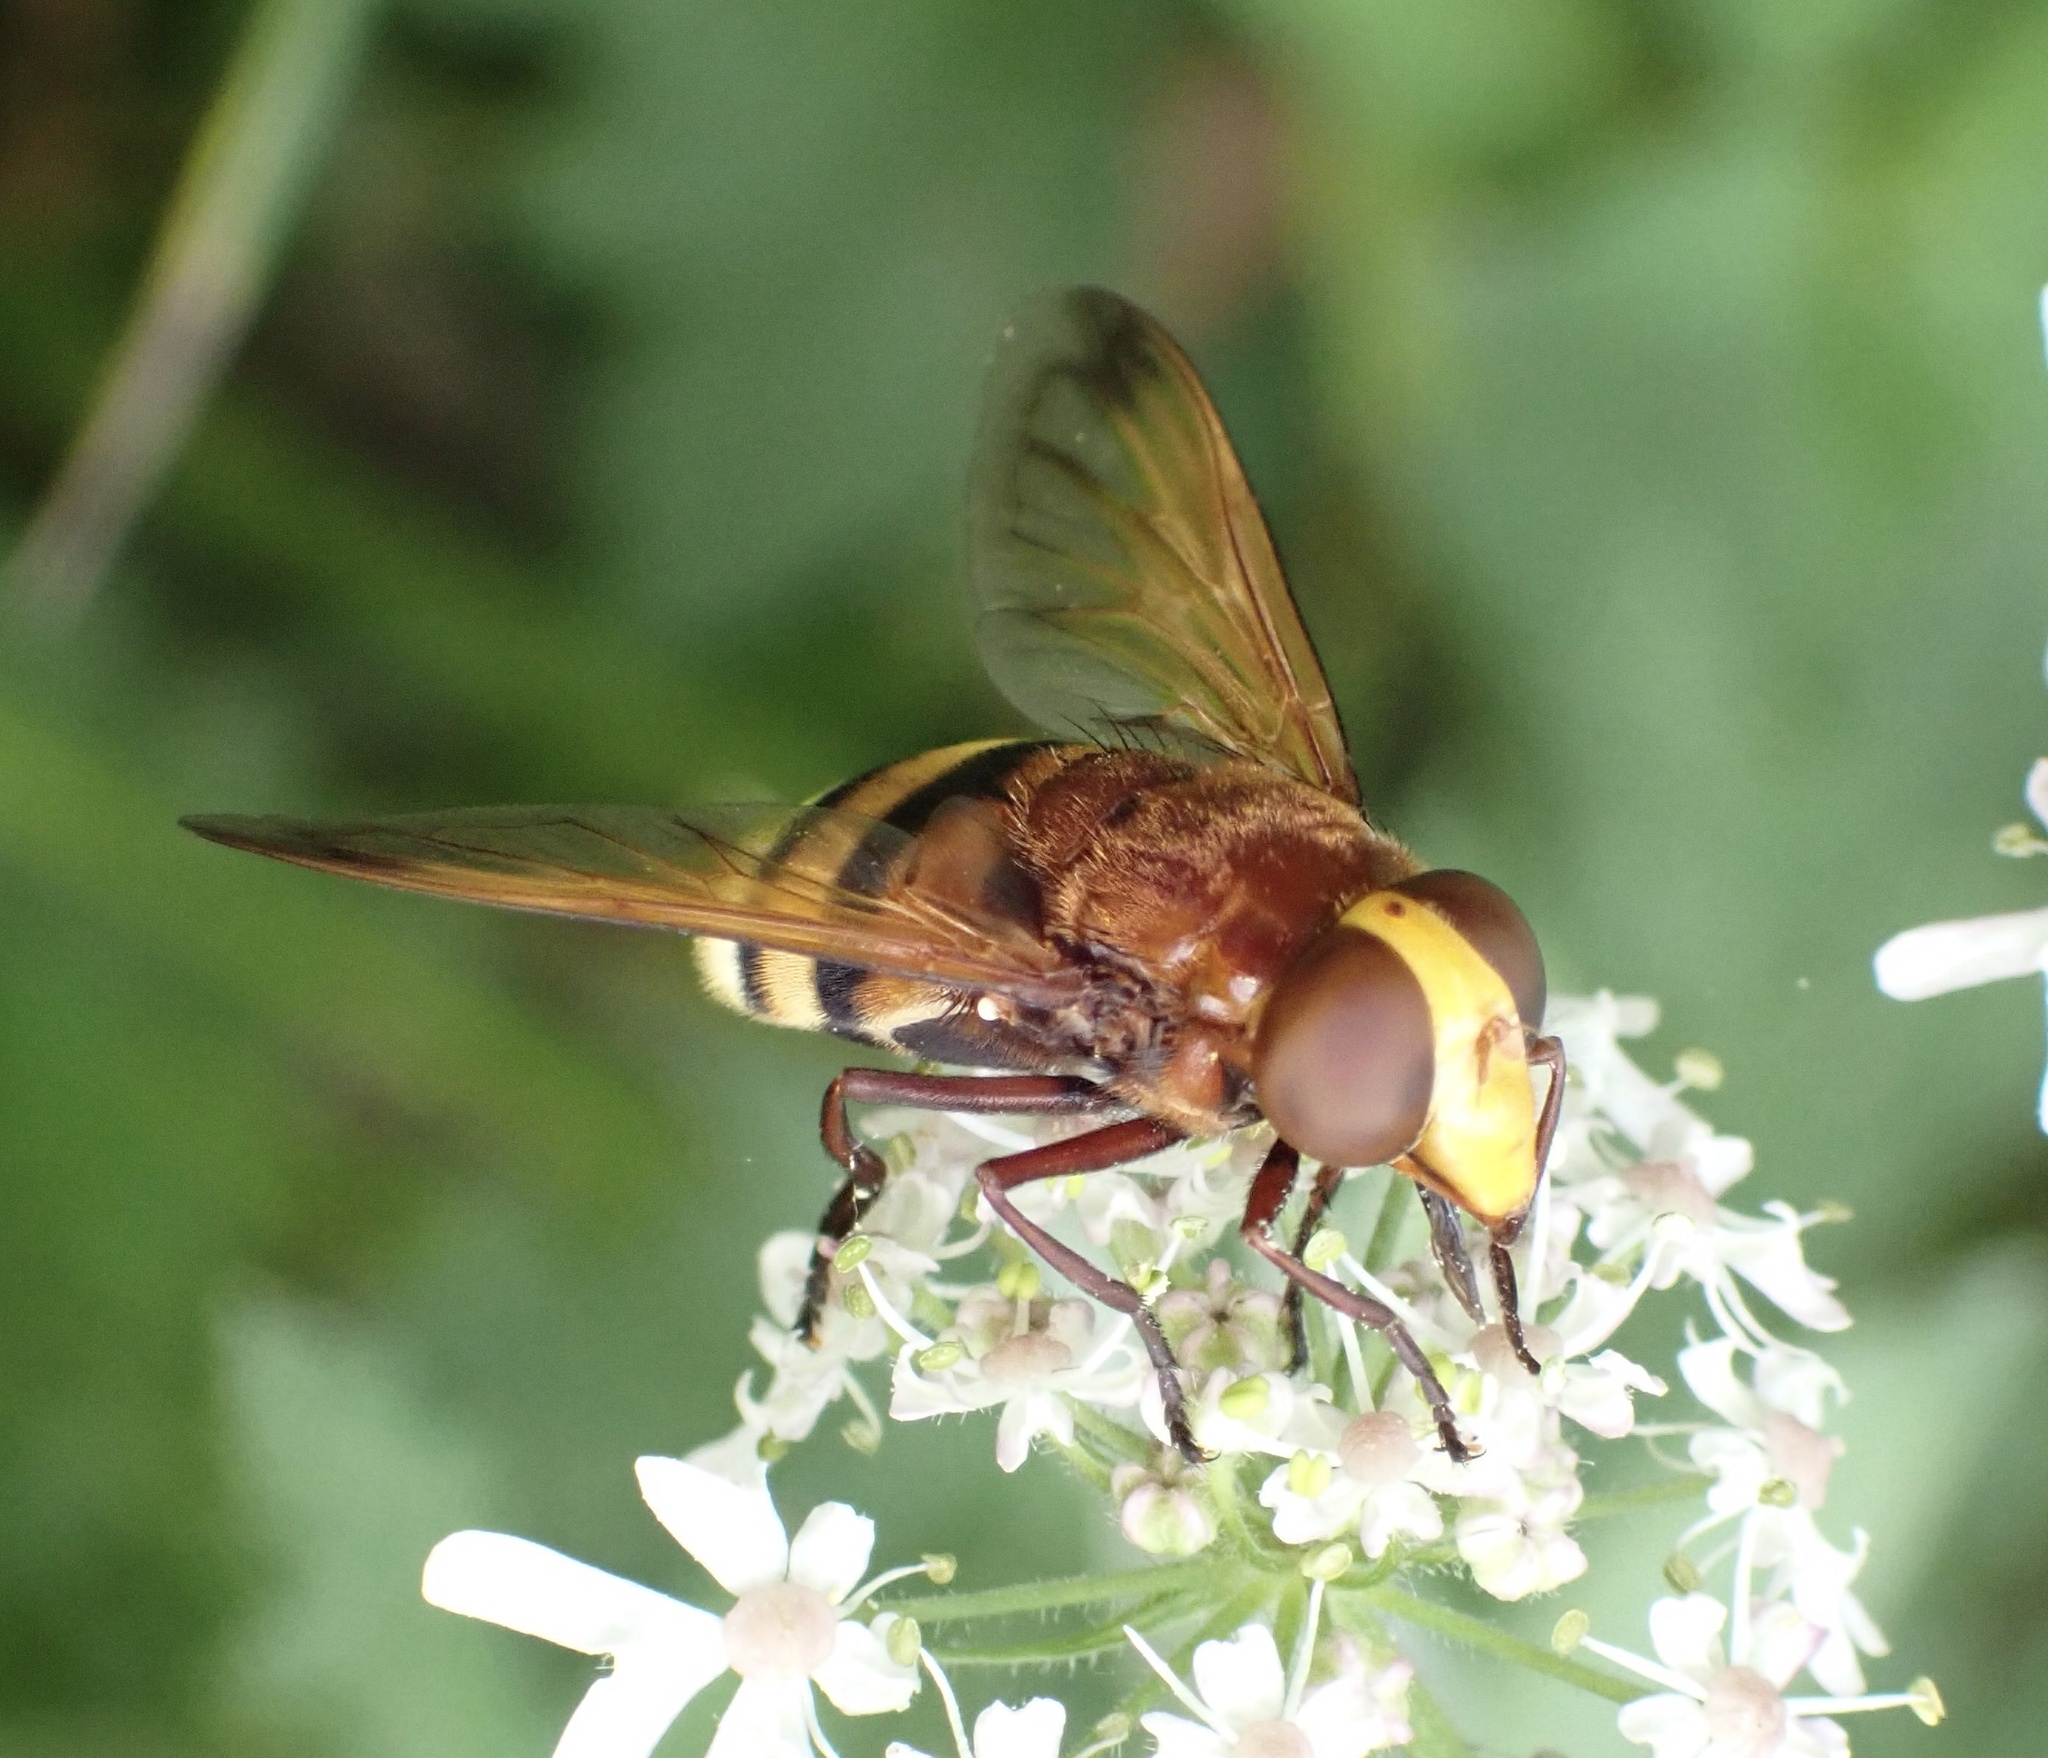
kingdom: Animalia
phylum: Arthropoda
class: Insecta
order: Diptera
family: Syrphidae
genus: Volucella
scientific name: Volucella zonaria
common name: Hornet hoverfly
